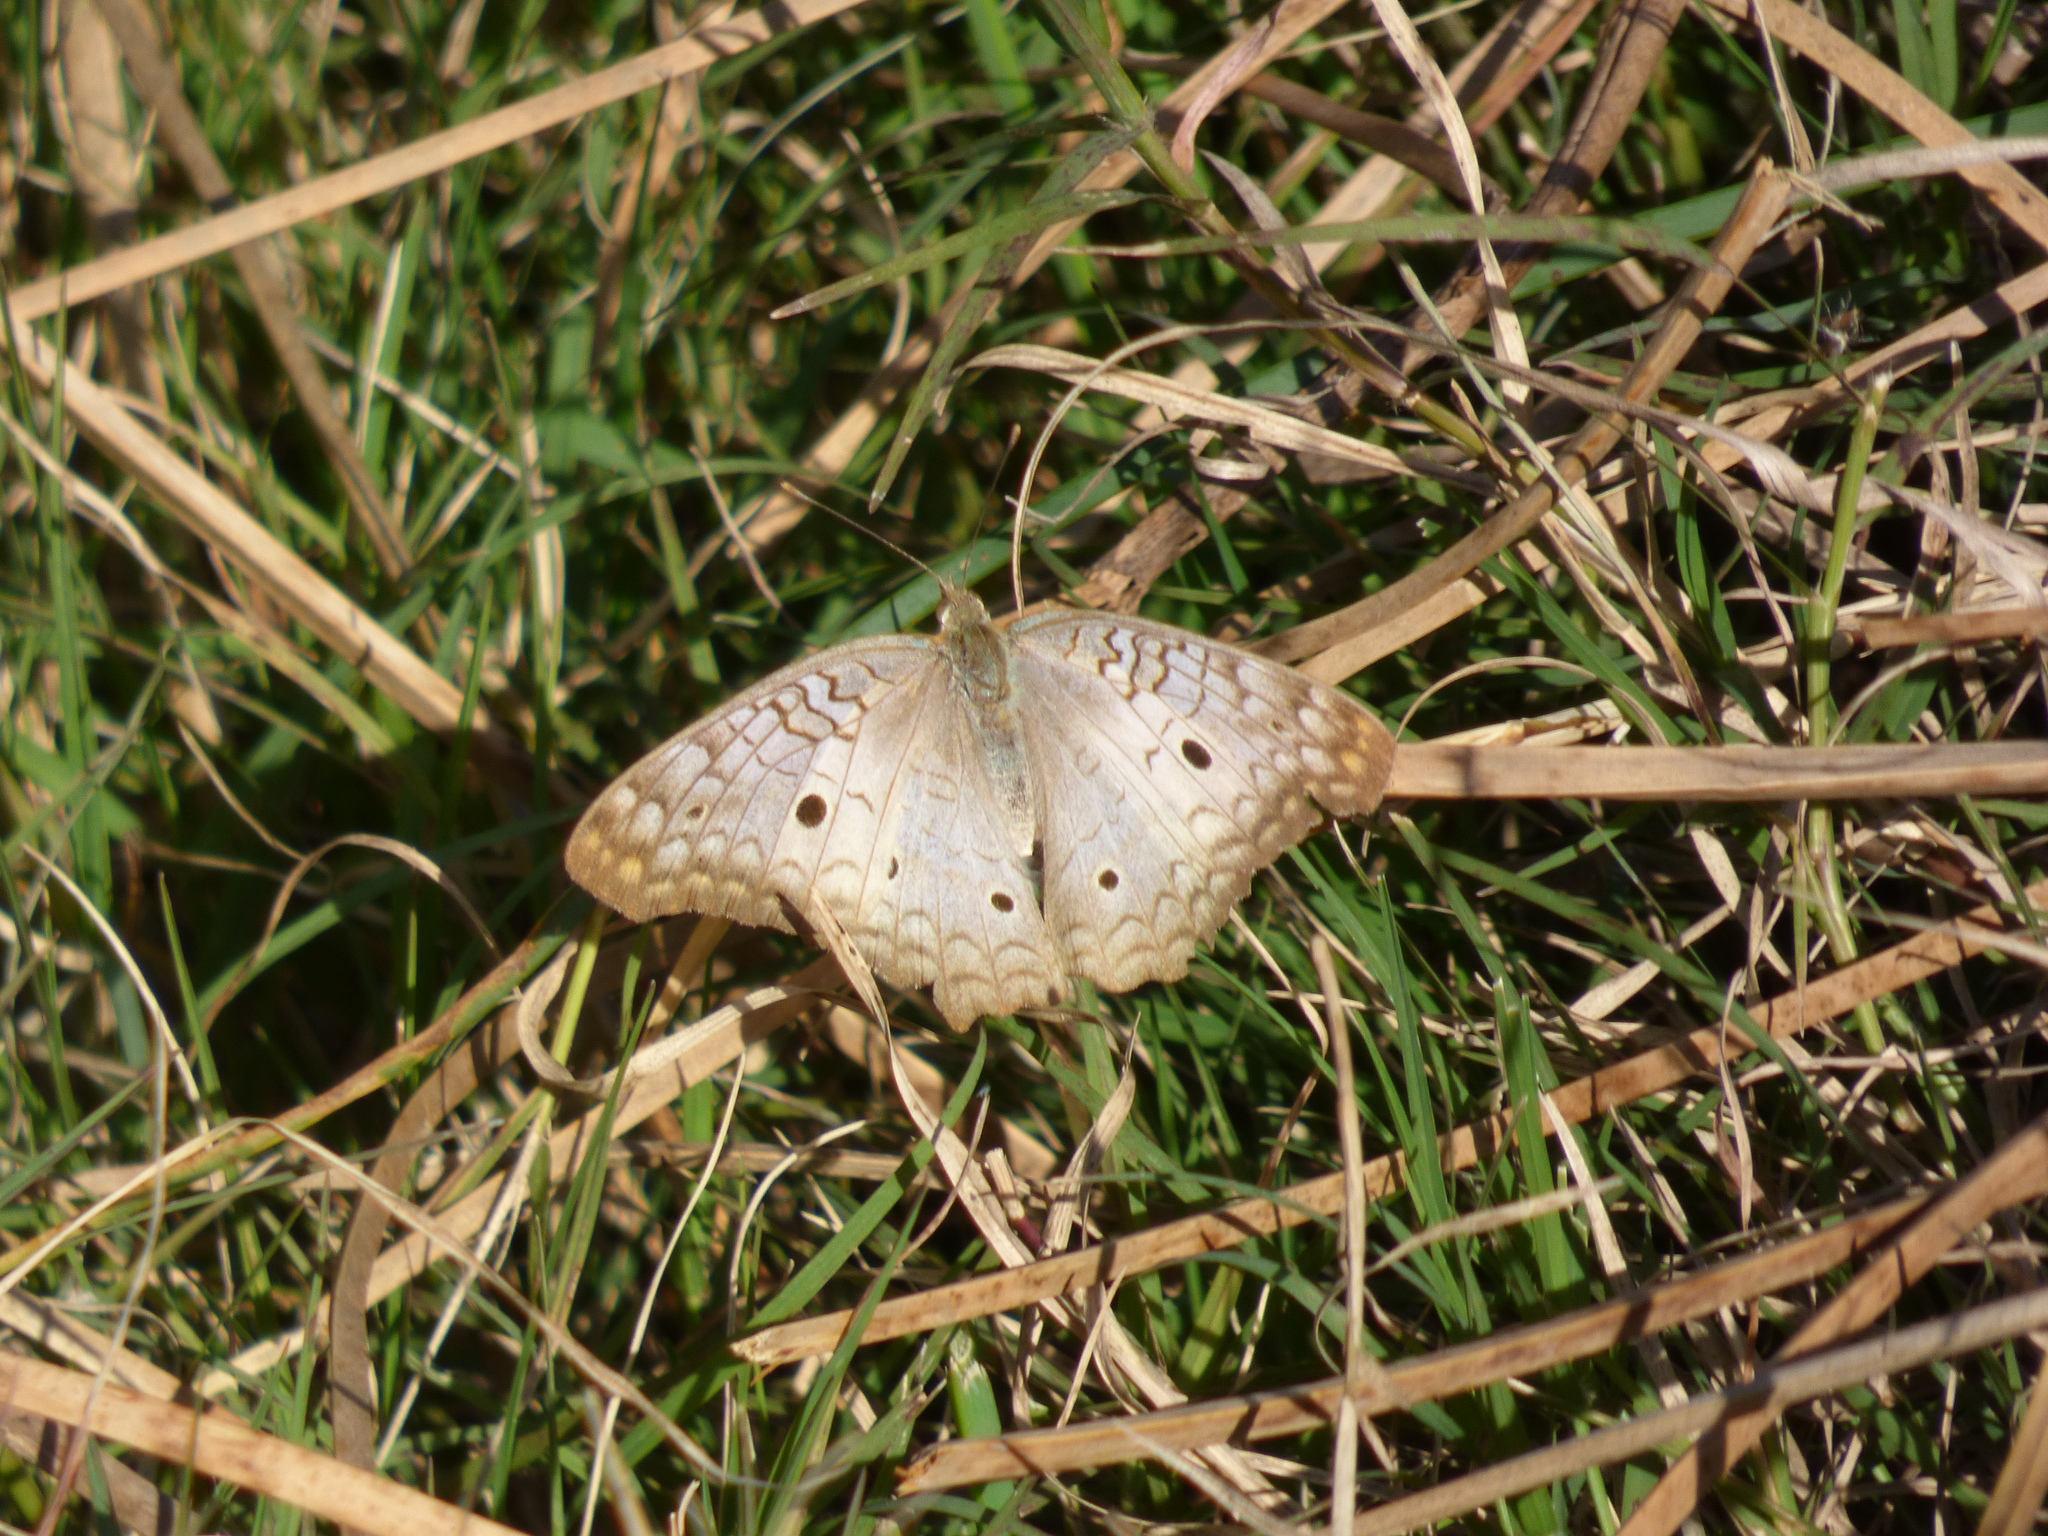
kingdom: Animalia
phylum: Arthropoda
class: Insecta
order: Lepidoptera
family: Nymphalidae
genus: Anartia
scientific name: Anartia jatrophae
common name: White peacock
